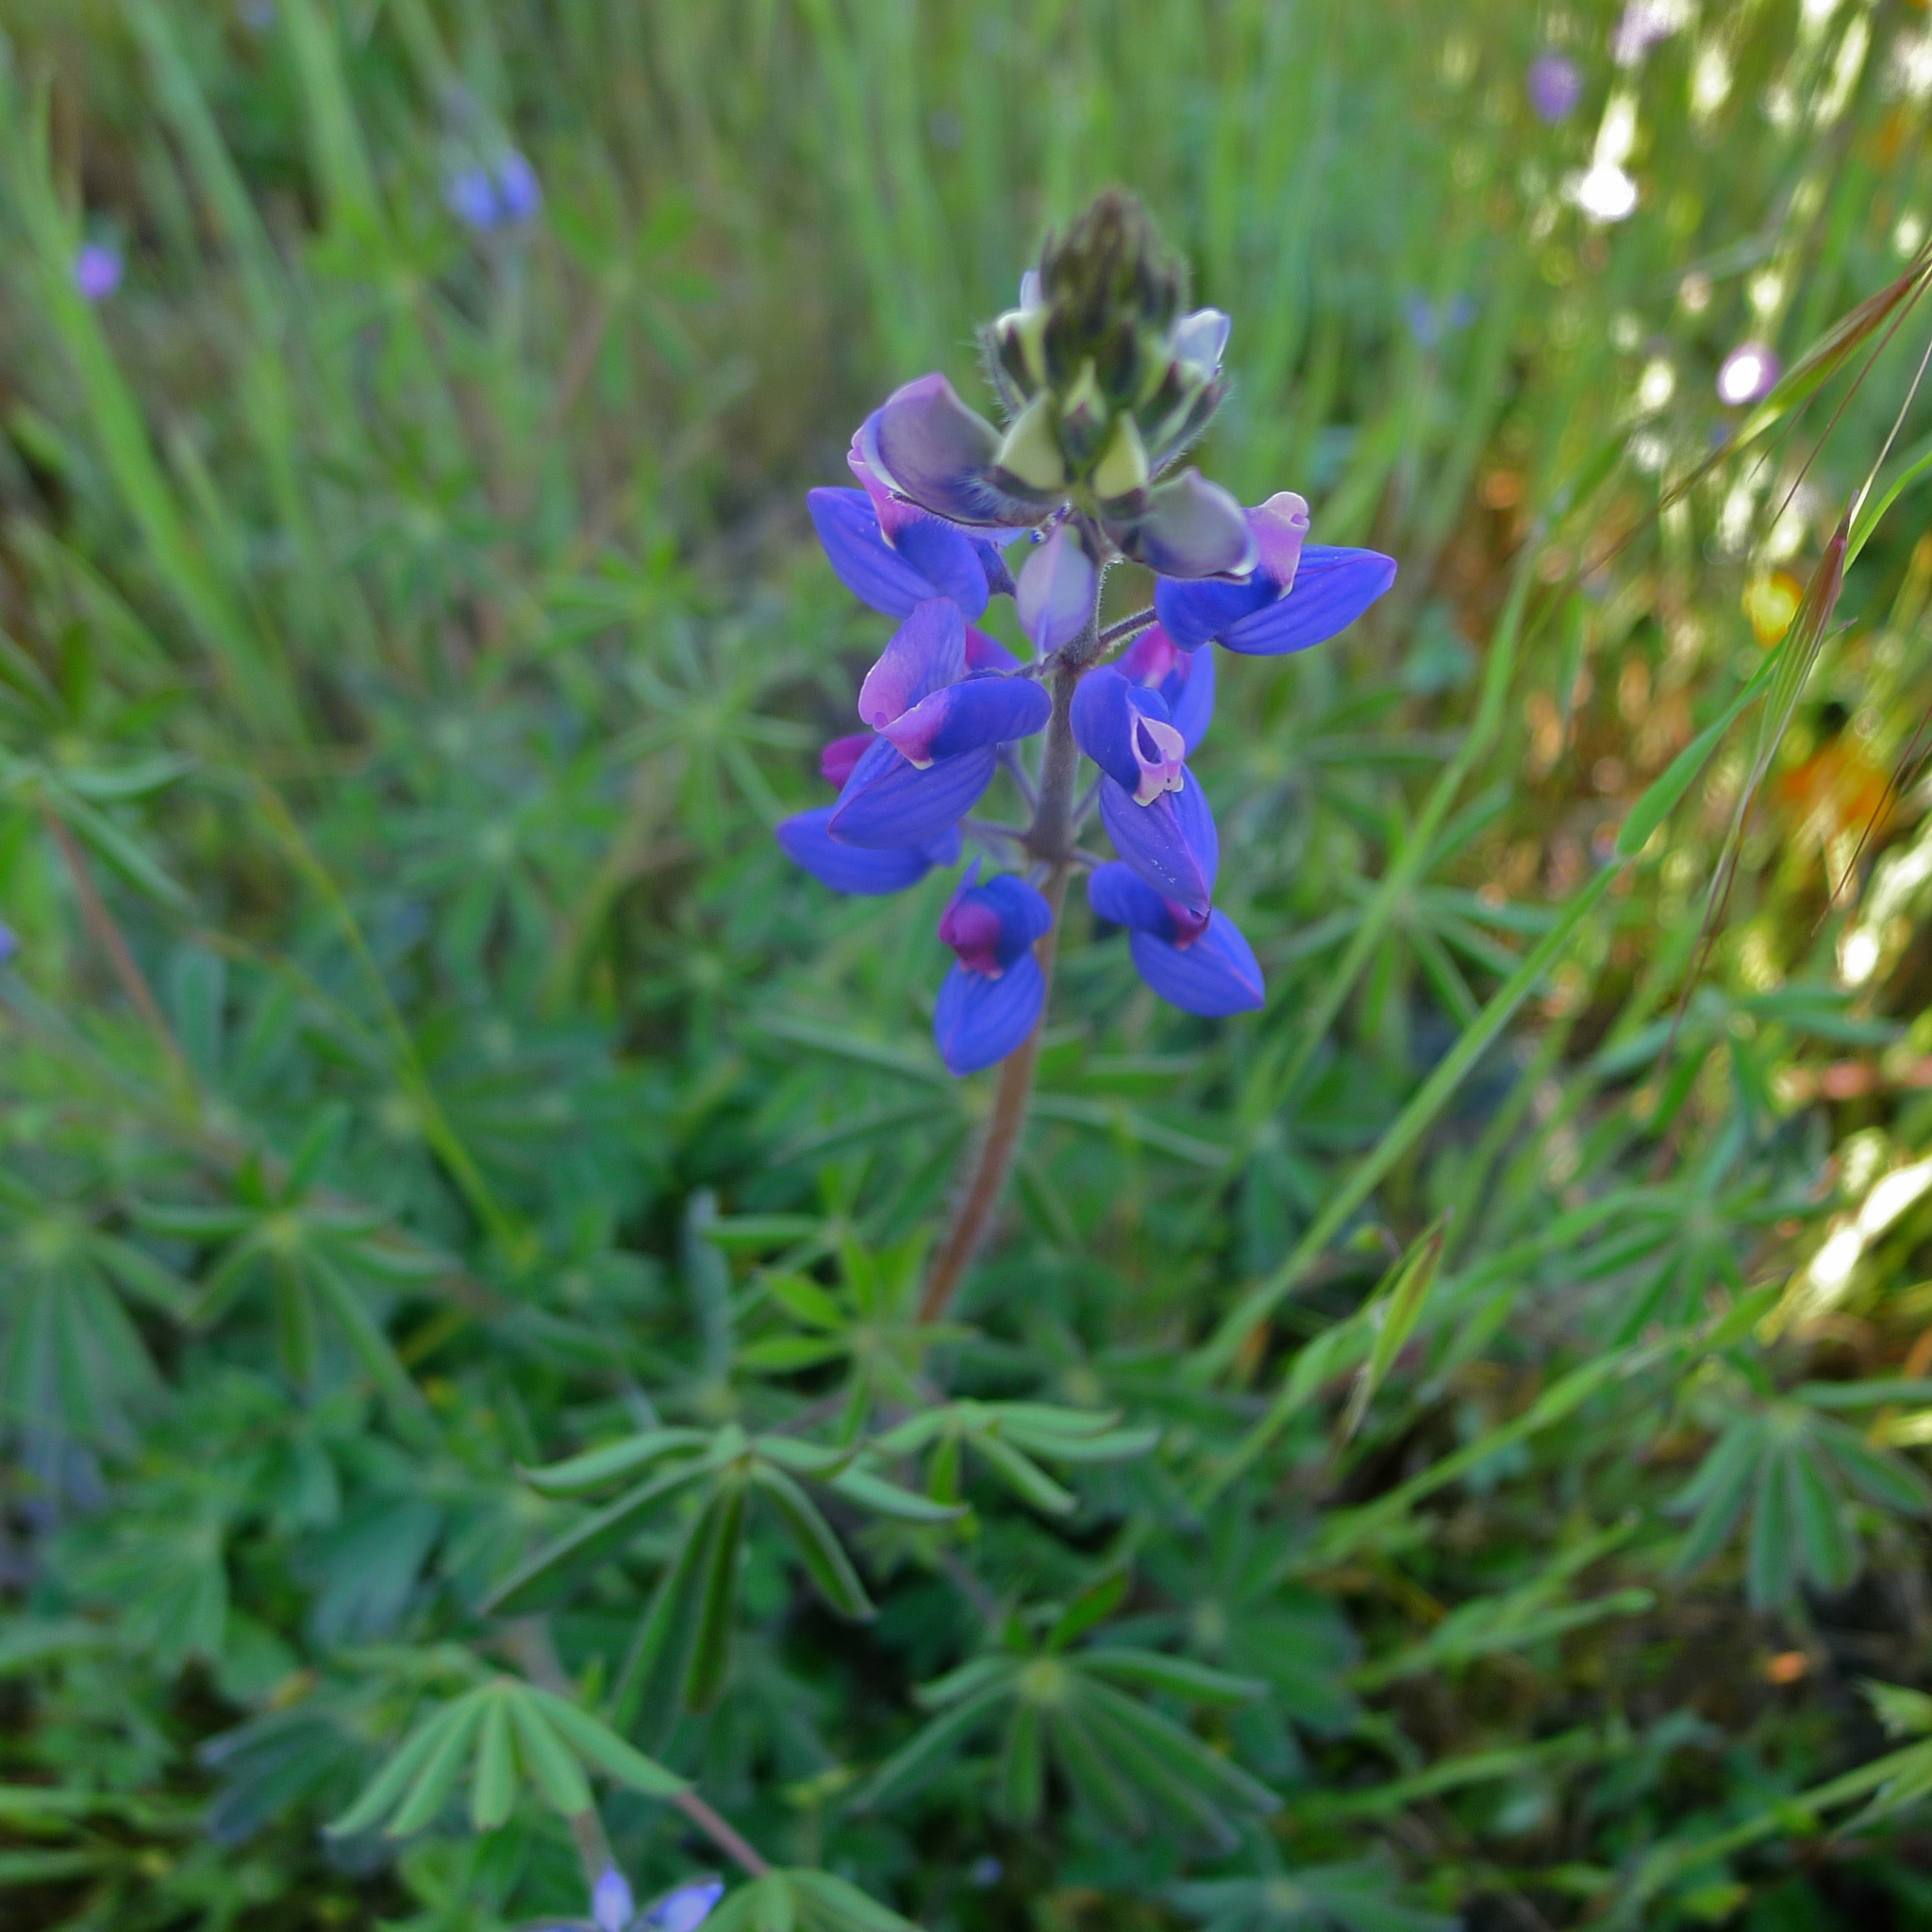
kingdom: Plantae
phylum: Tracheophyta
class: Magnoliopsida
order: Fabales
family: Fabaceae
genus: Lupinus
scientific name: Lupinus nanus
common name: Orean blue lupin
